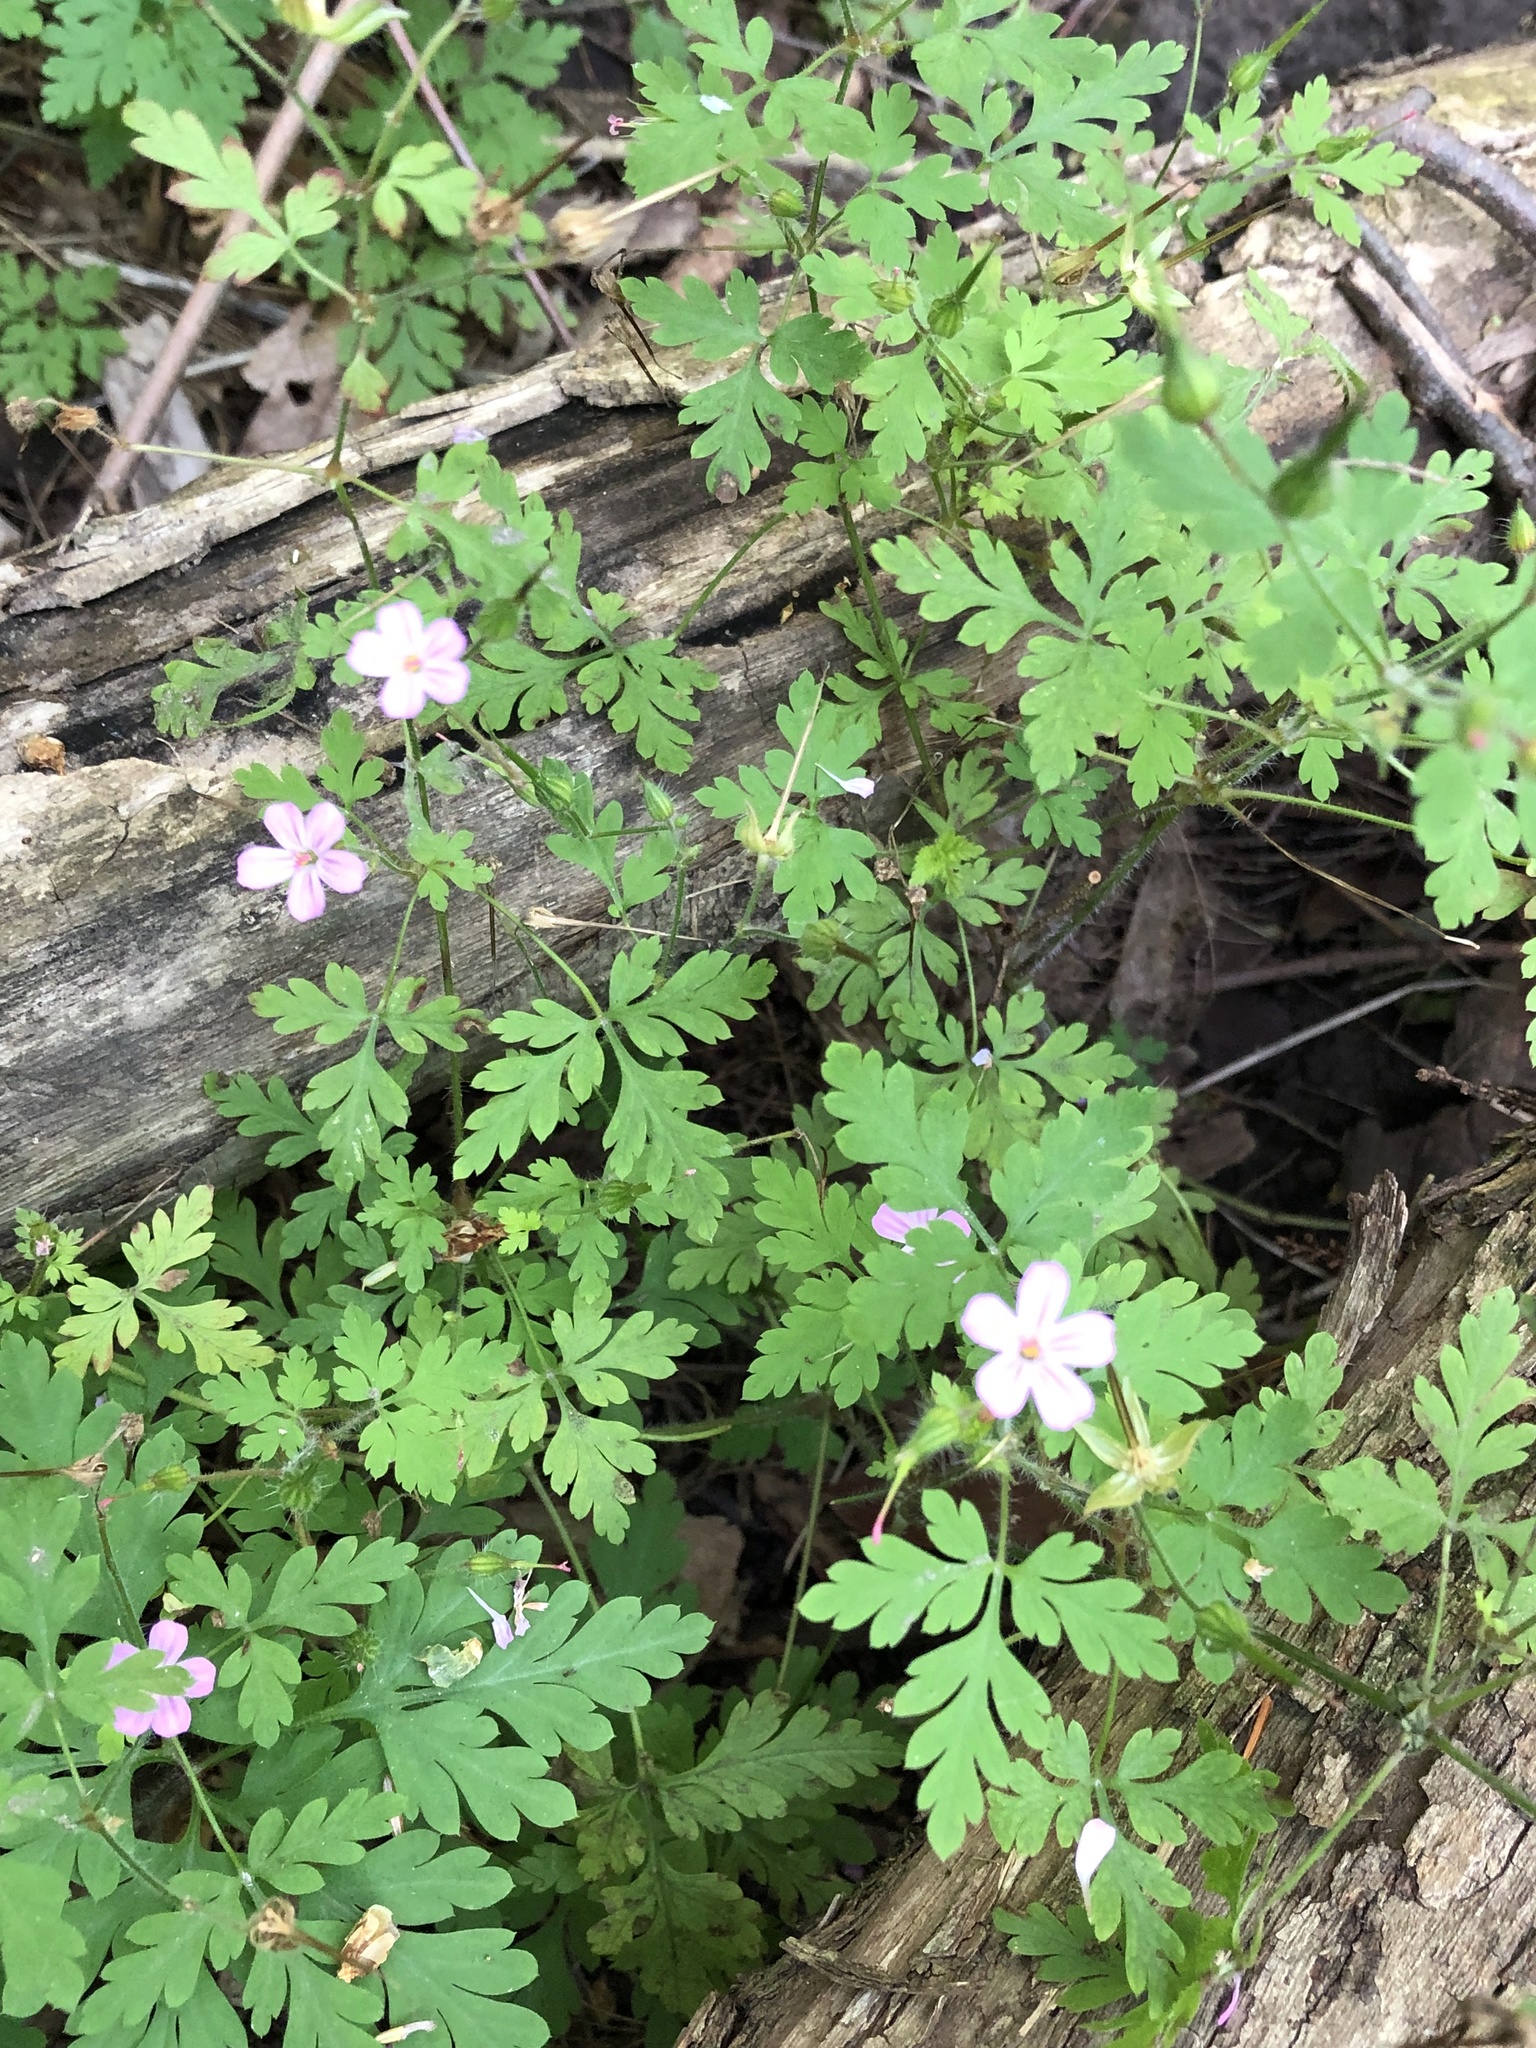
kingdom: Plantae
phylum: Tracheophyta
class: Magnoliopsida
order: Geraniales
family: Geraniaceae
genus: Geranium
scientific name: Geranium robertianum
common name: Herb-robert
